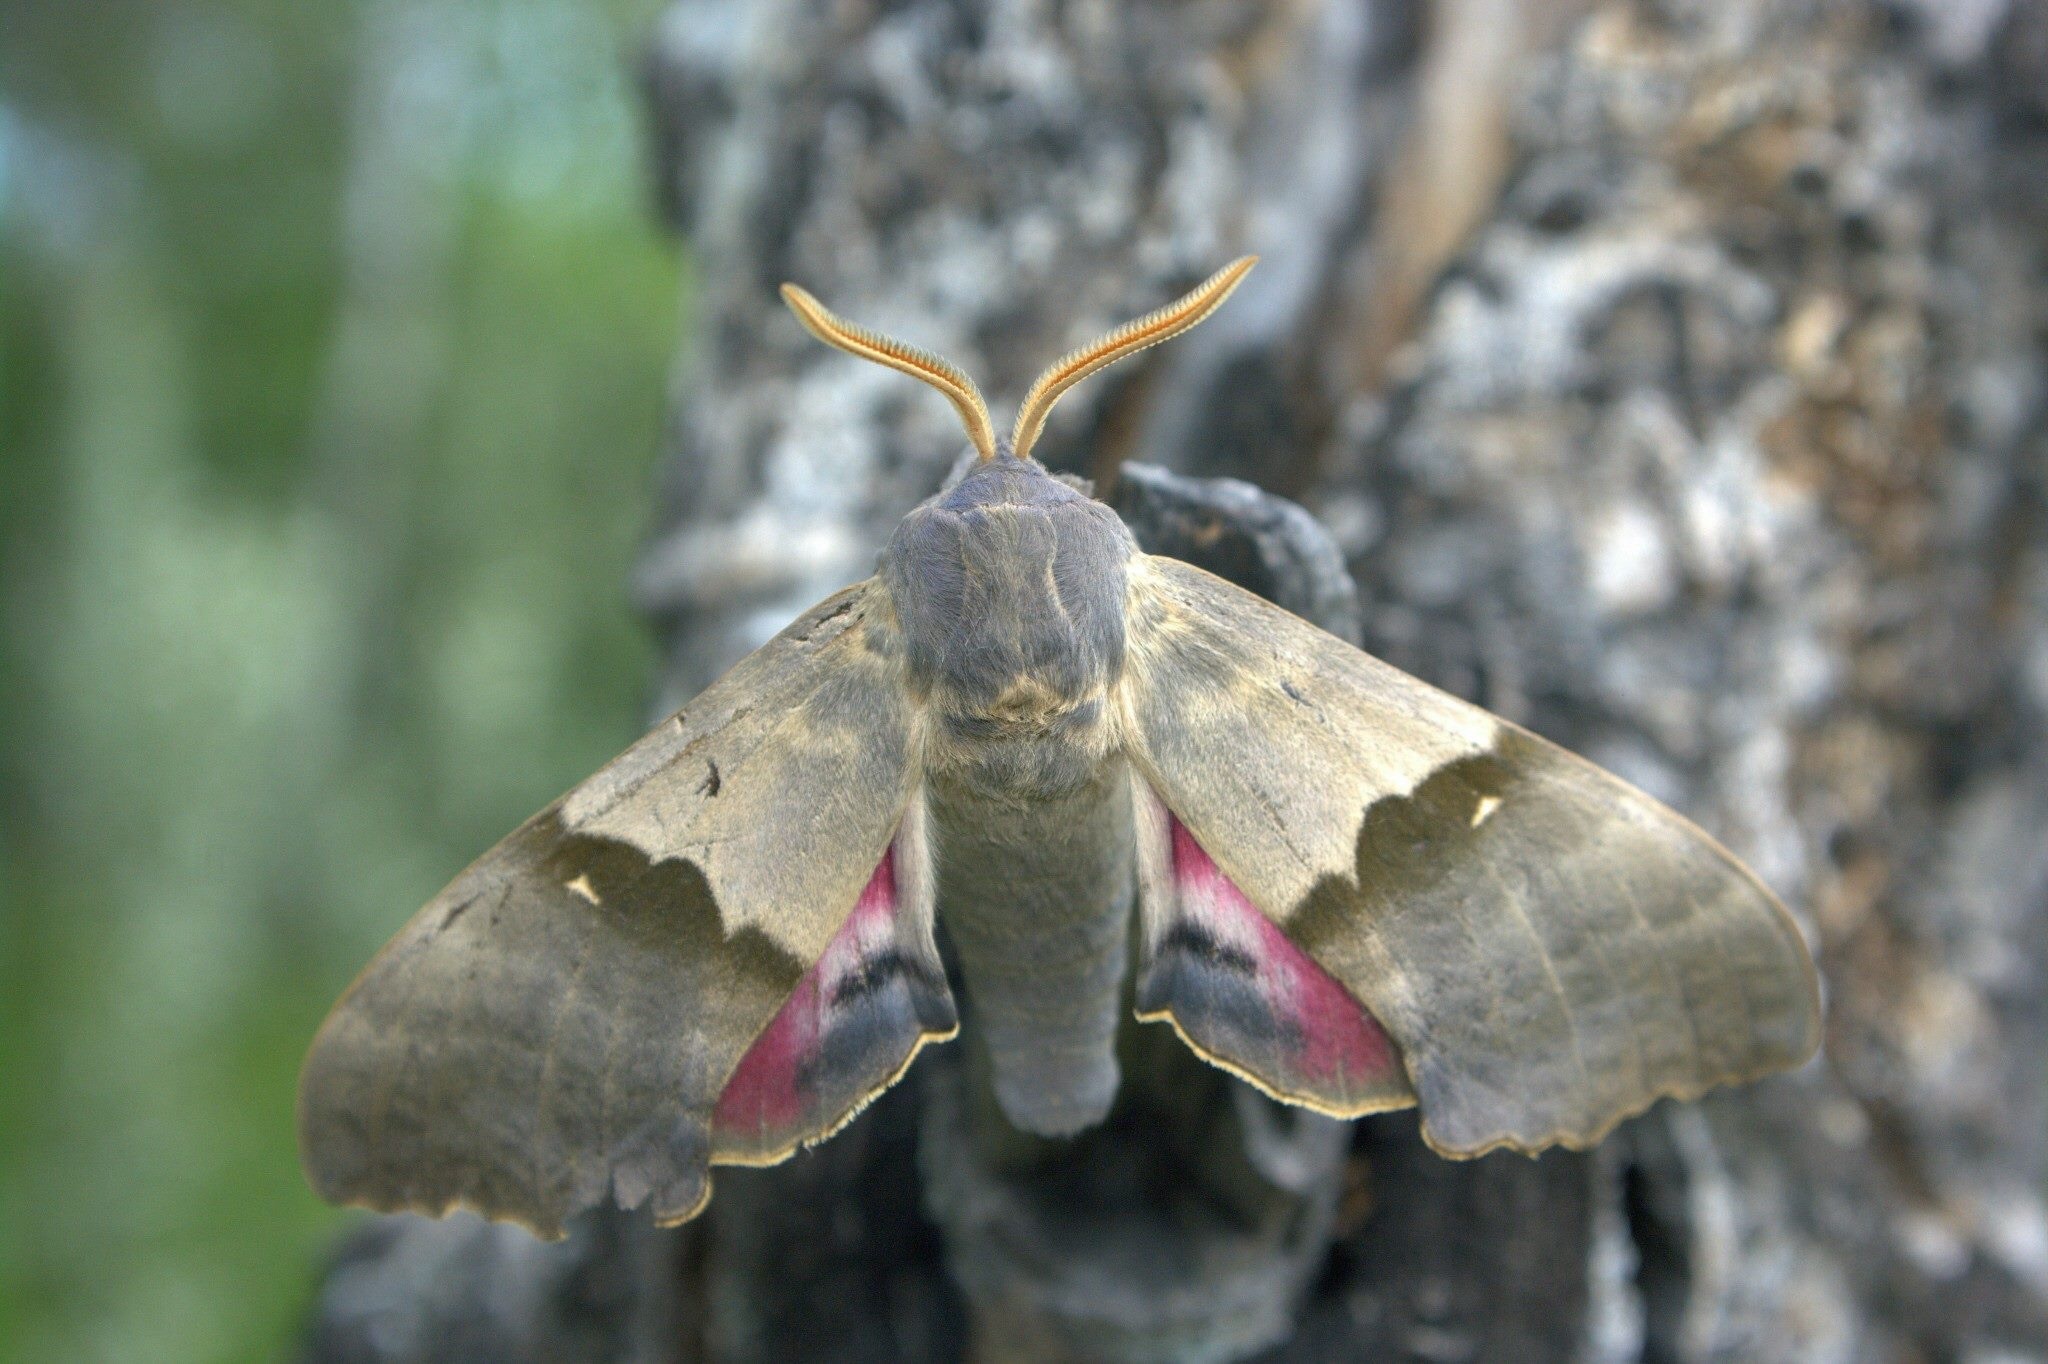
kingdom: Animalia
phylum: Arthropoda
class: Insecta
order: Lepidoptera
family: Sphingidae
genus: Pachysphinx
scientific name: Pachysphinx modesta
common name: Big poplar sphinx
